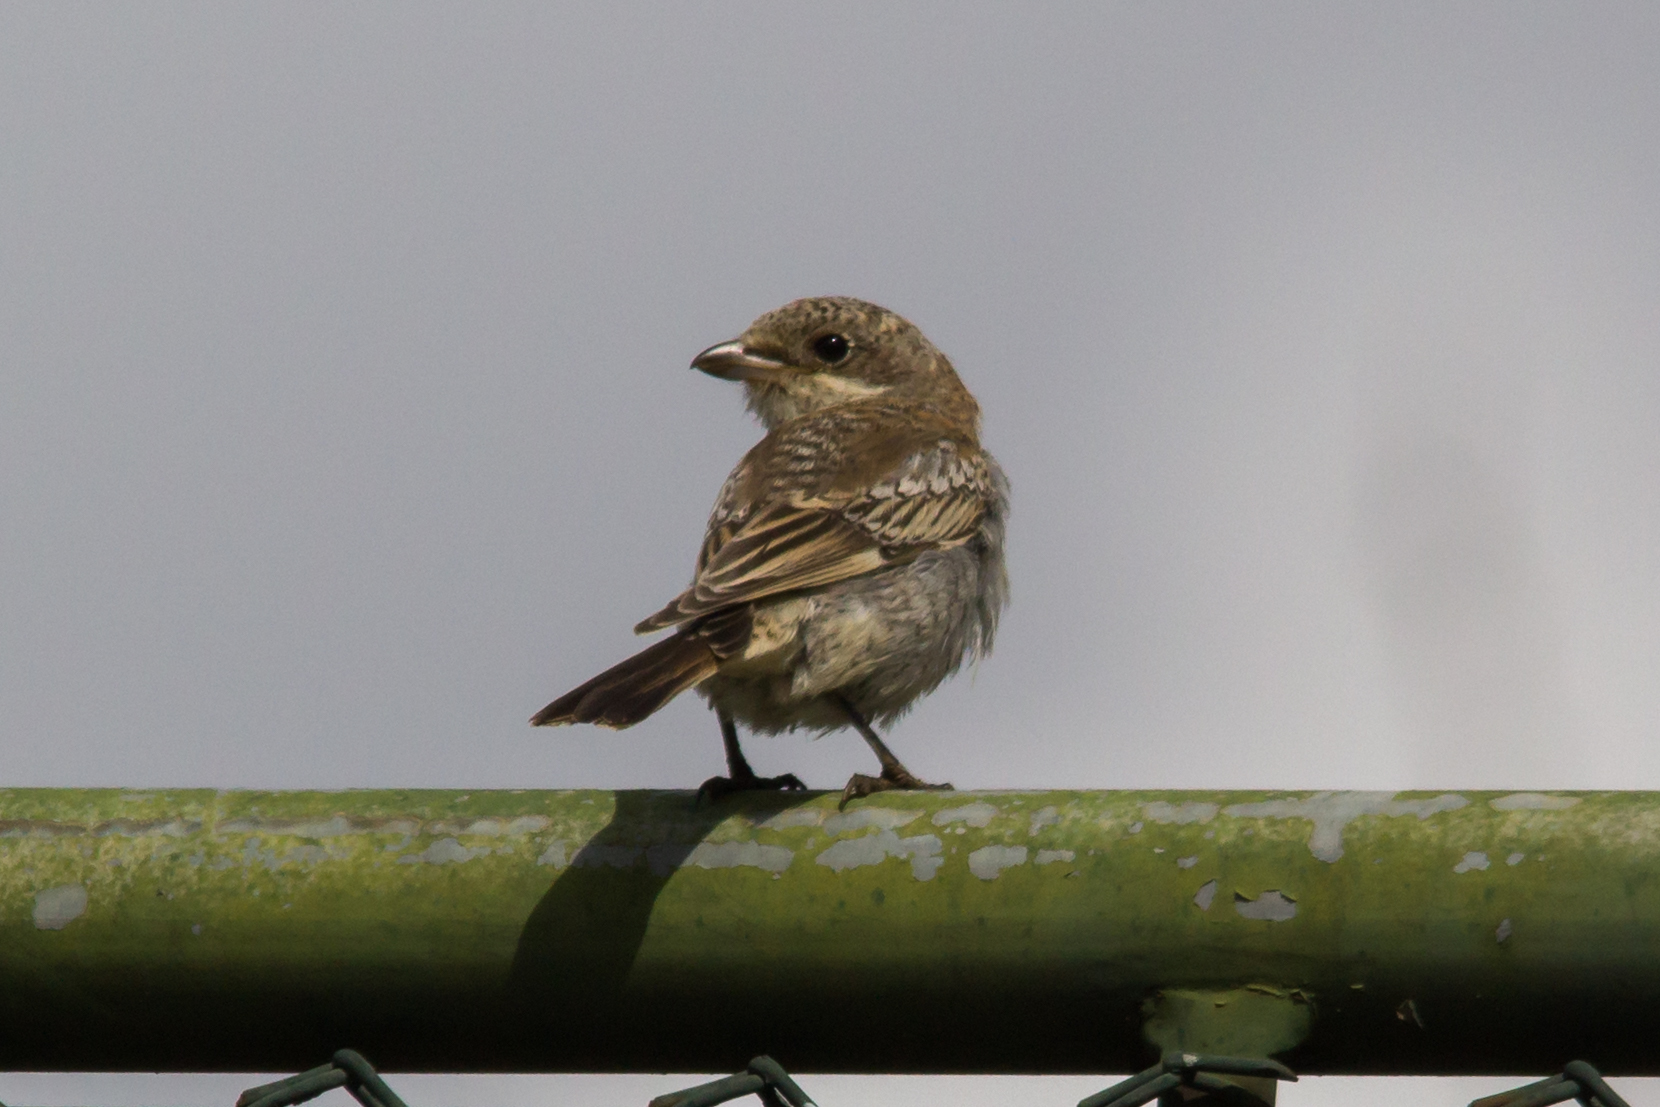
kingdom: Animalia
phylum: Chordata
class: Aves
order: Passeriformes
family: Laniidae
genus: Lanius
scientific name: Lanius senator
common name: Woodchat shrike
